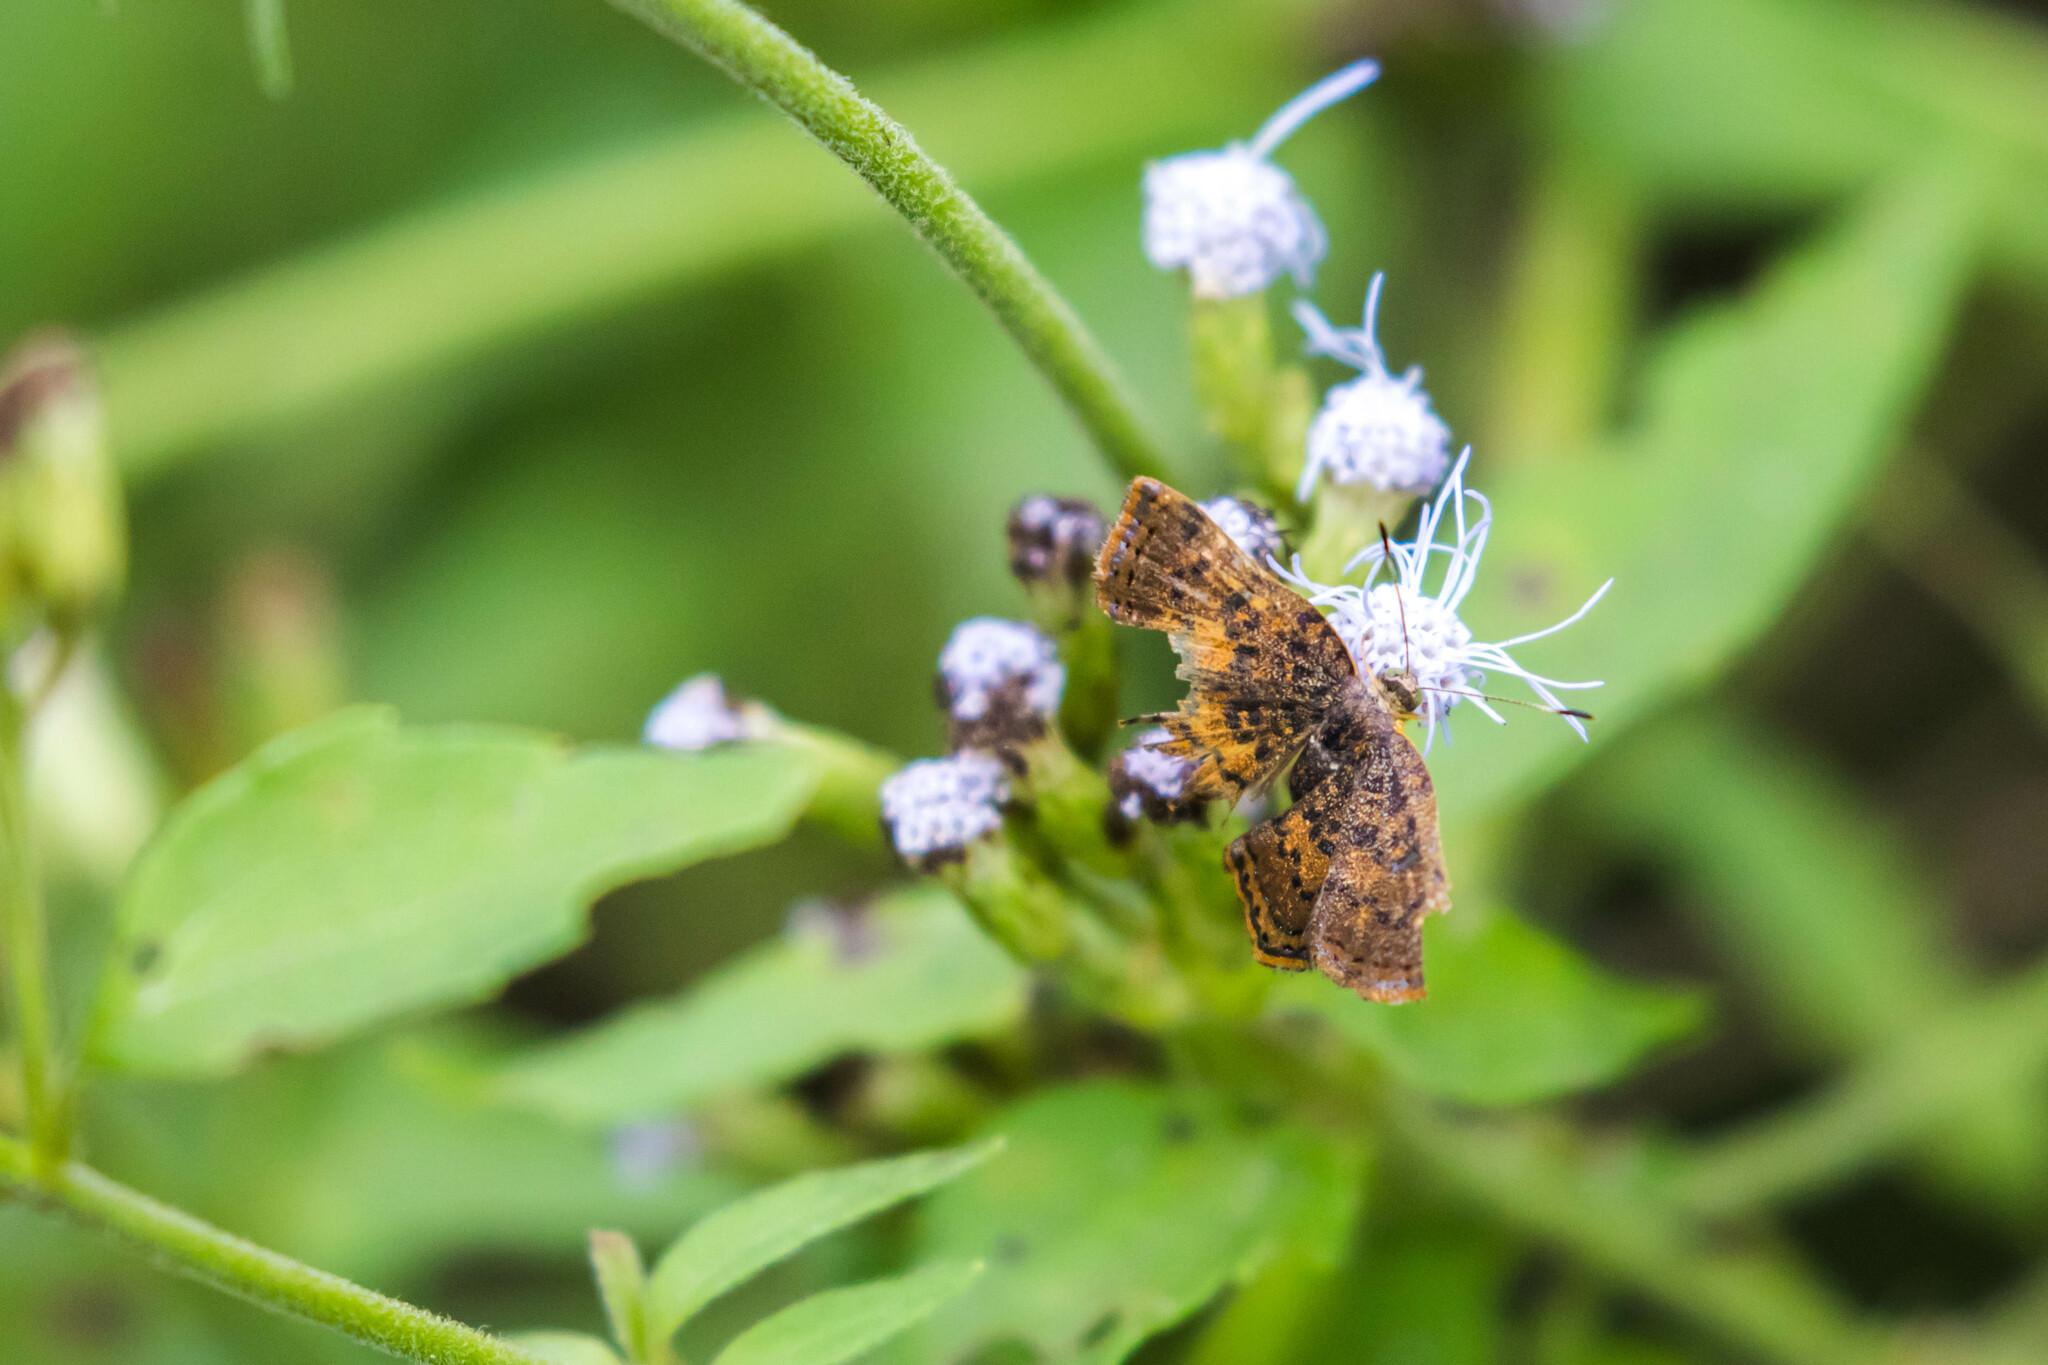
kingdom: Animalia
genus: Caria
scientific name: Caria ino
